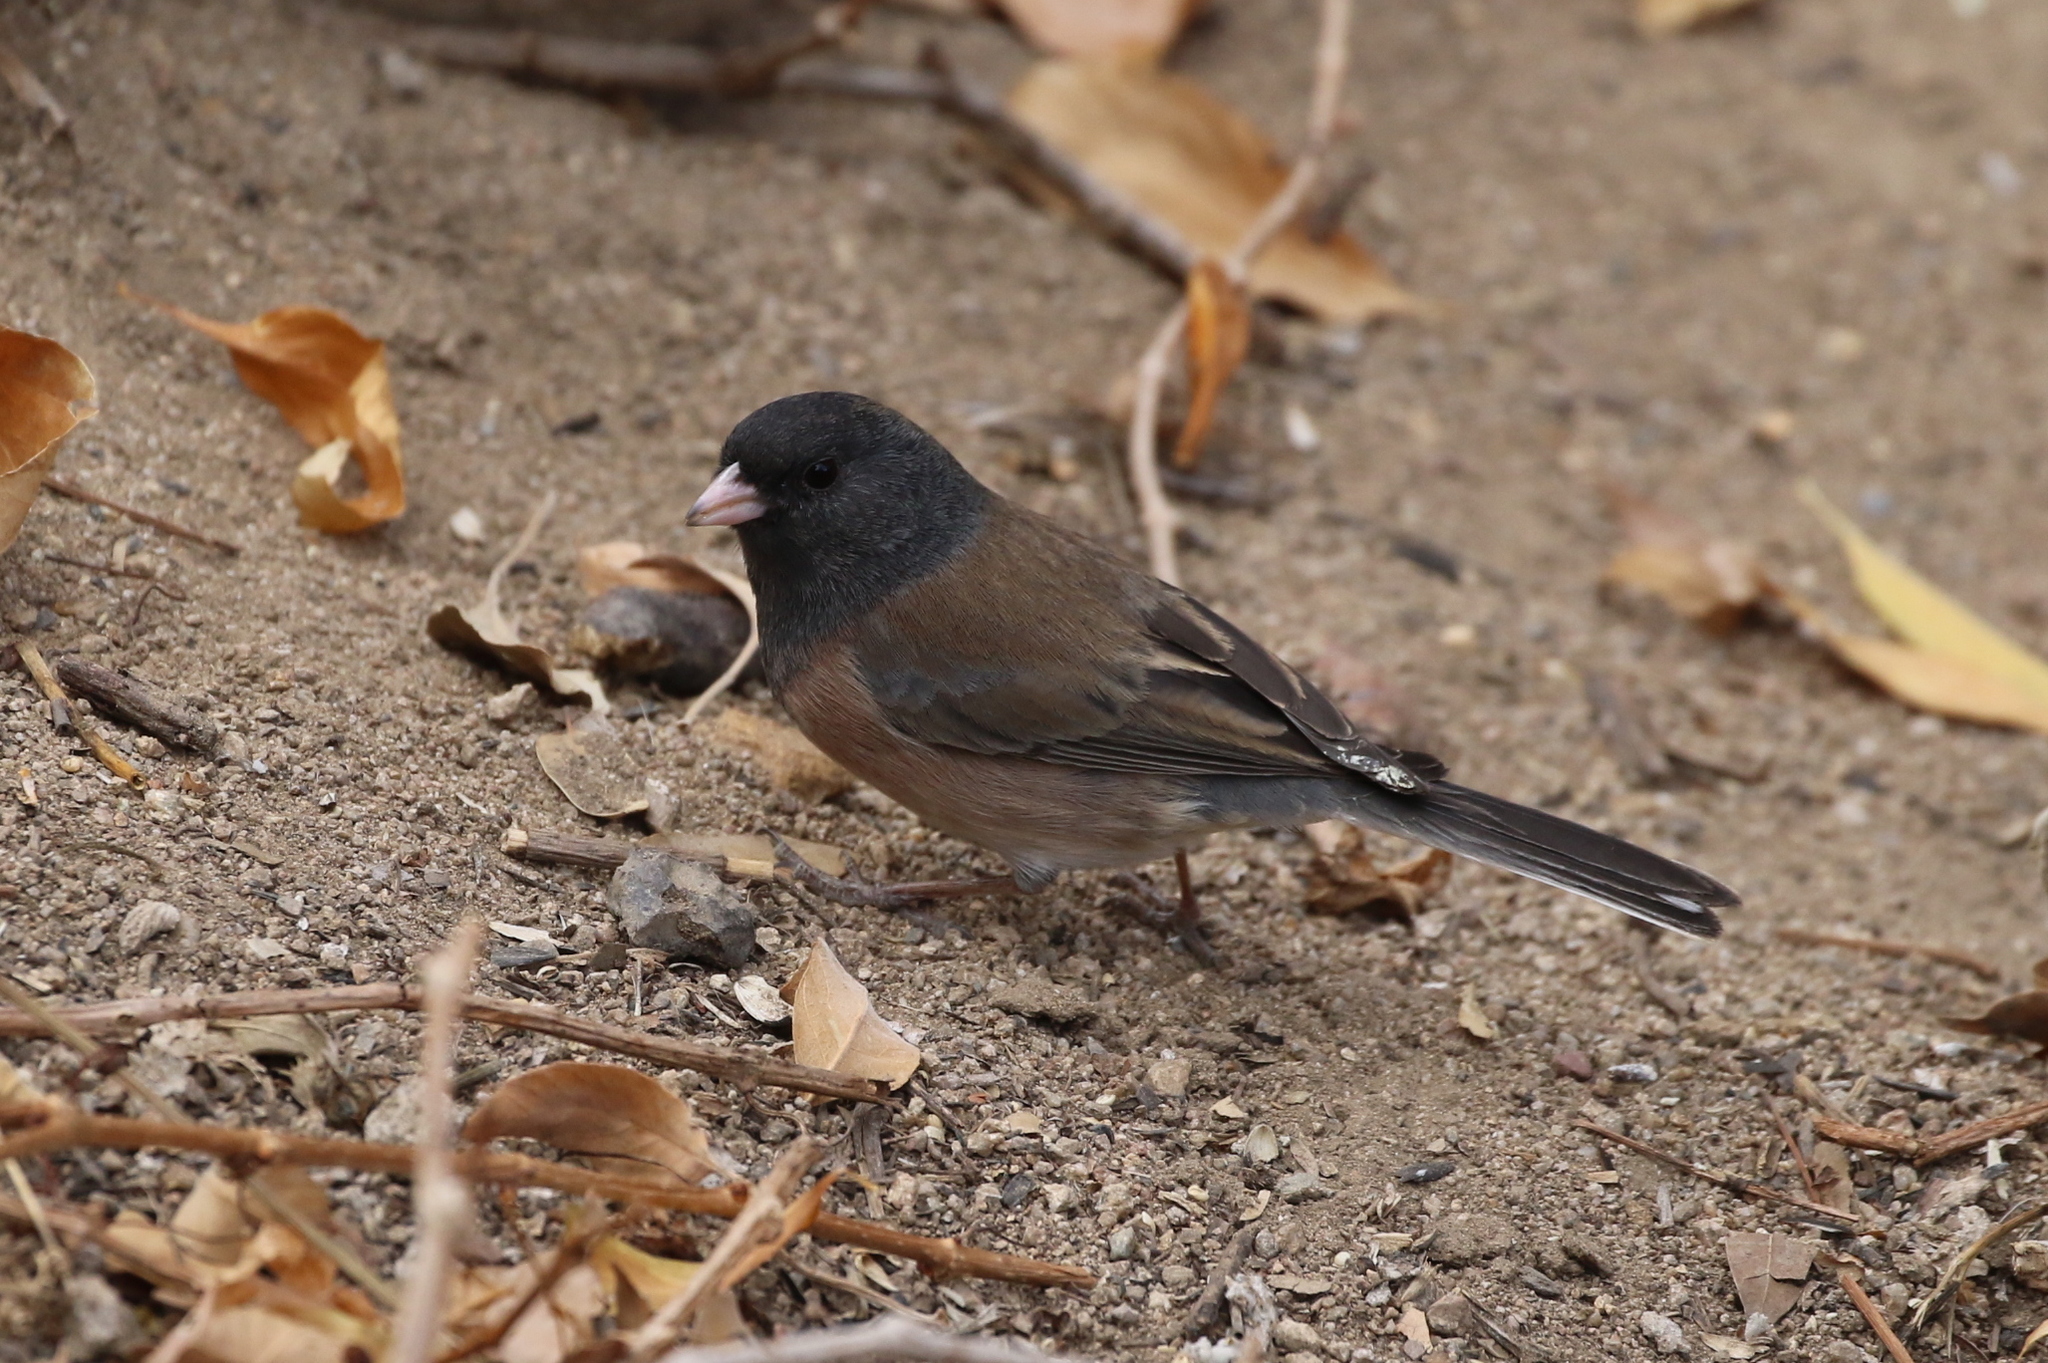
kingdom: Animalia
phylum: Chordata
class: Aves
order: Passeriformes
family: Passerellidae
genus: Junco
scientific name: Junco hyemalis
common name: Dark-eyed junco
